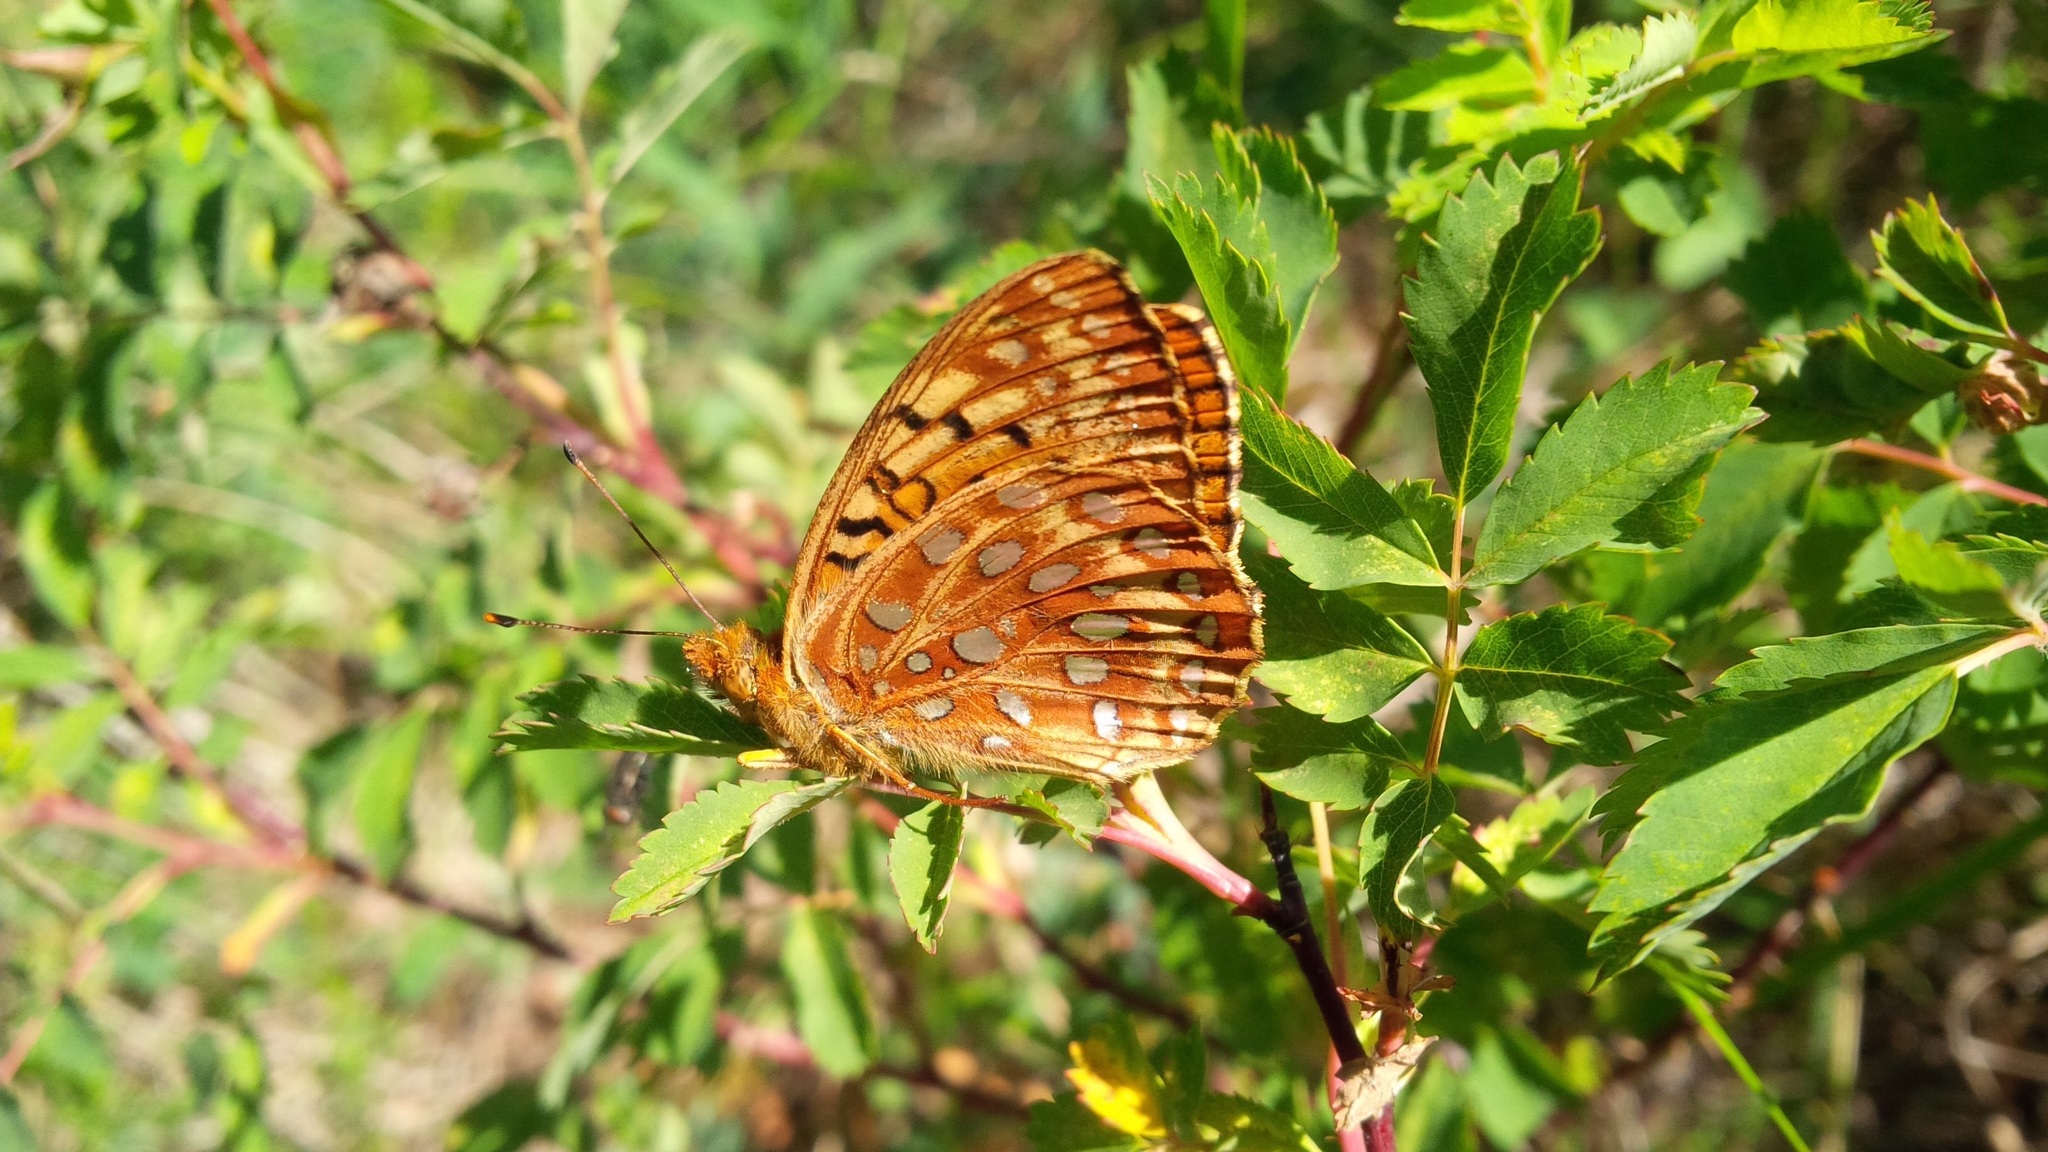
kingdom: Animalia
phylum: Arthropoda
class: Insecta
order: Lepidoptera
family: Nymphalidae
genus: Speyeria
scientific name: Speyeria aphrodite
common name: Aphrodite friitllary
